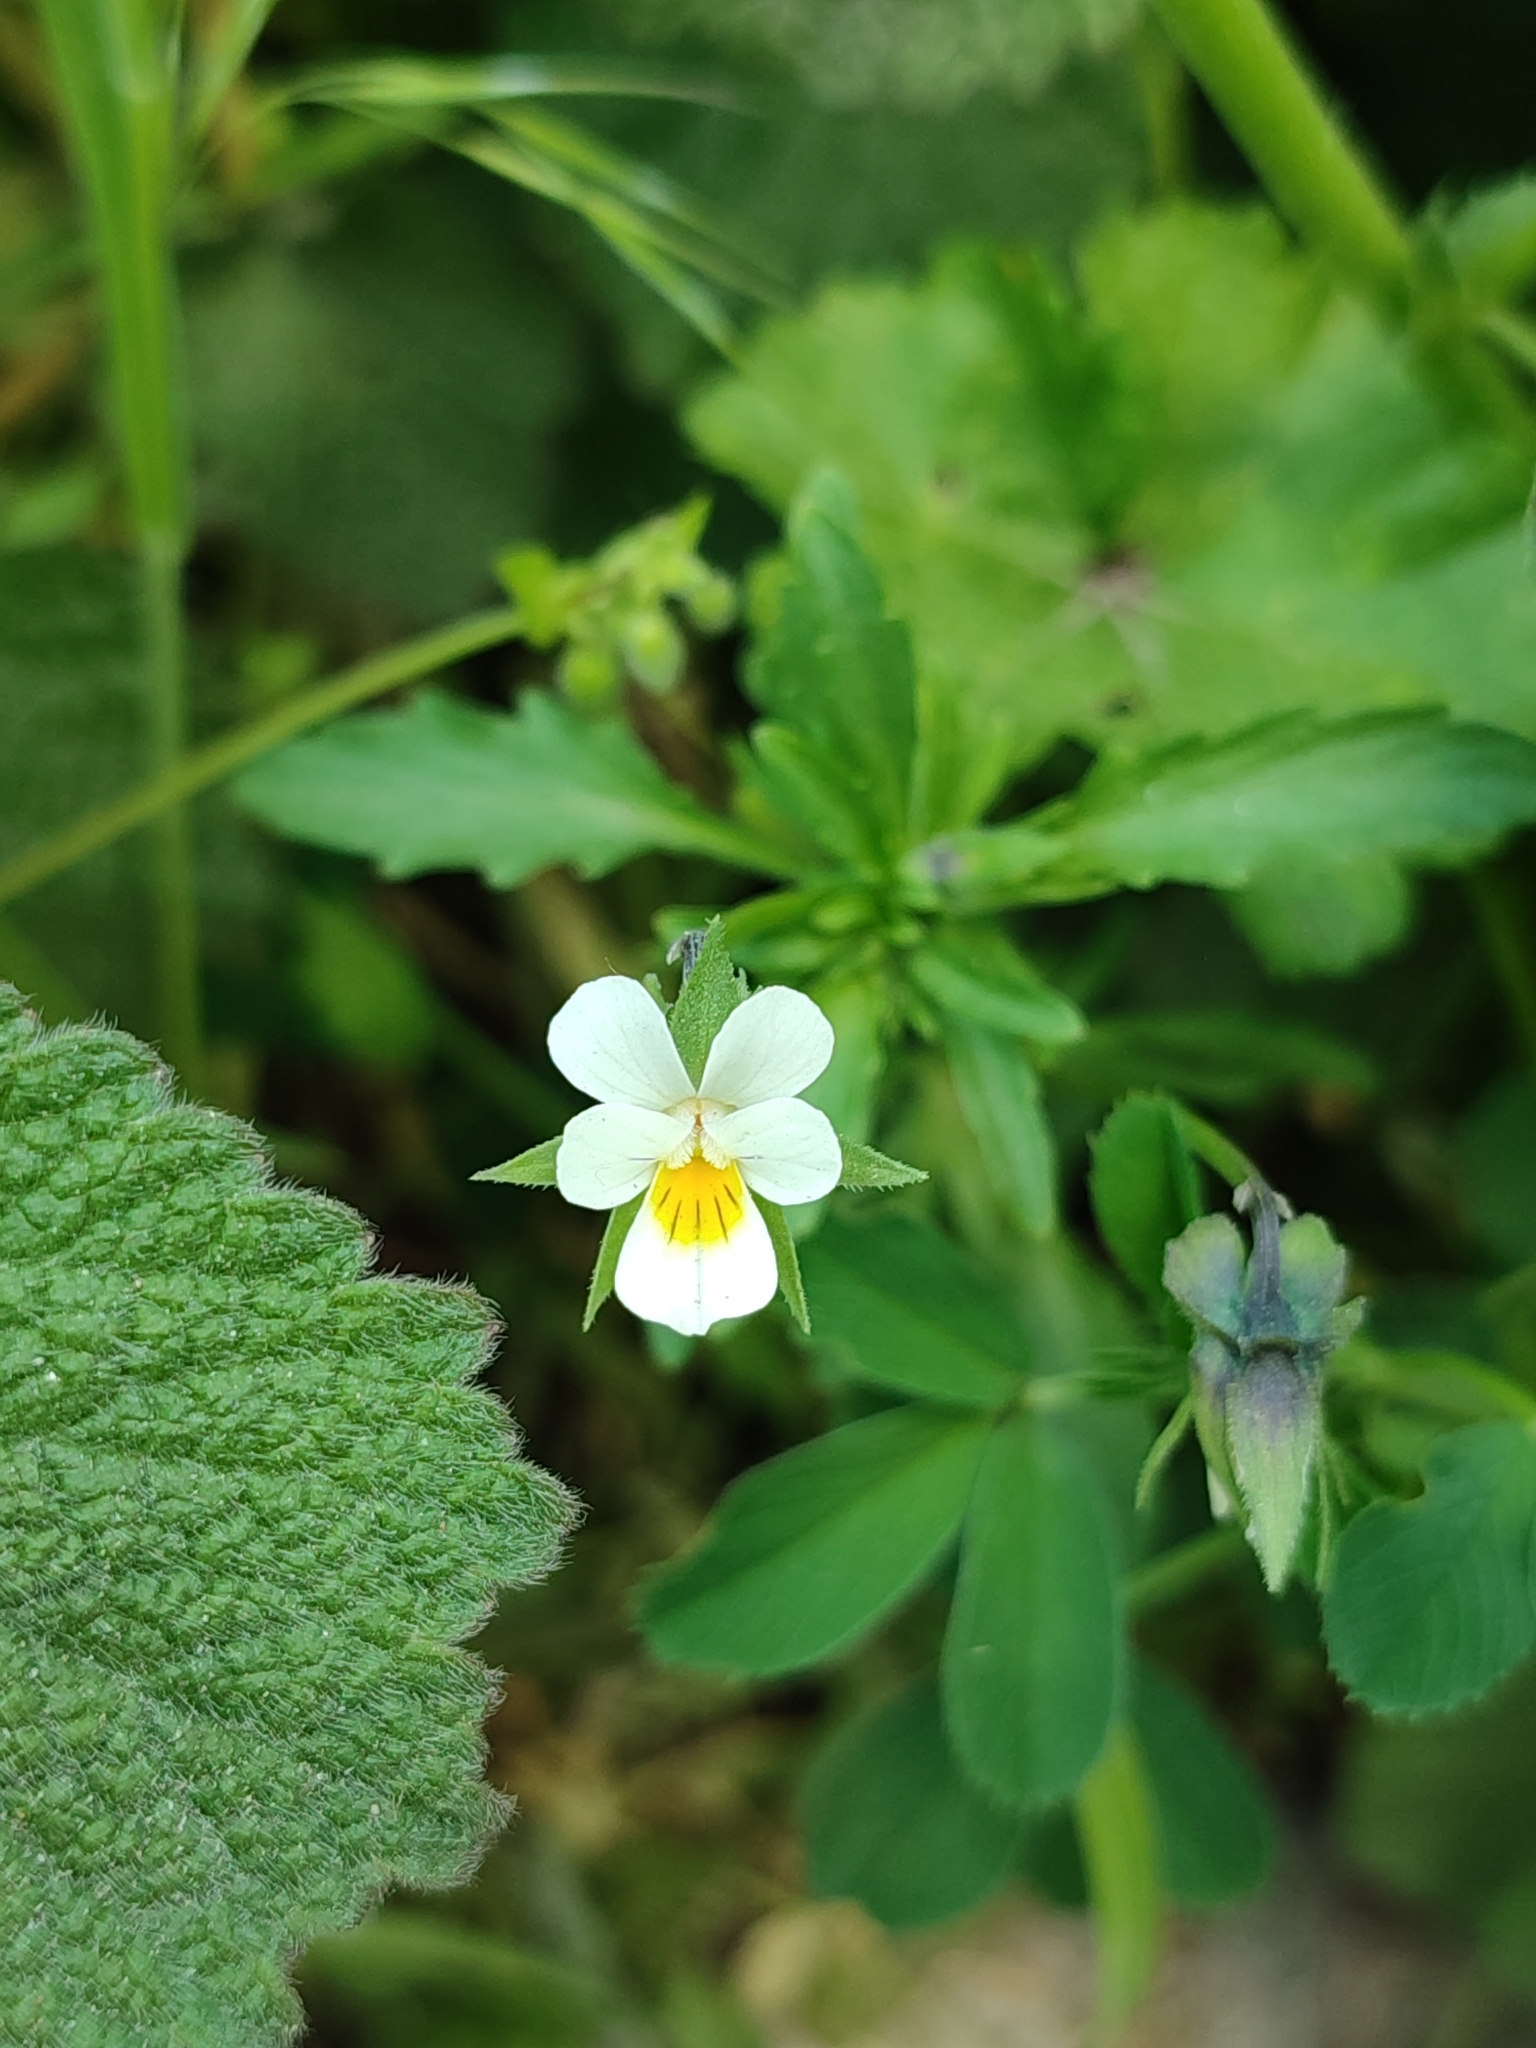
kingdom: Plantae
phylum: Tracheophyta
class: Magnoliopsida
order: Malpighiales
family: Violaceae
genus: Viola
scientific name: Viola arvensis
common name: Field pansy
